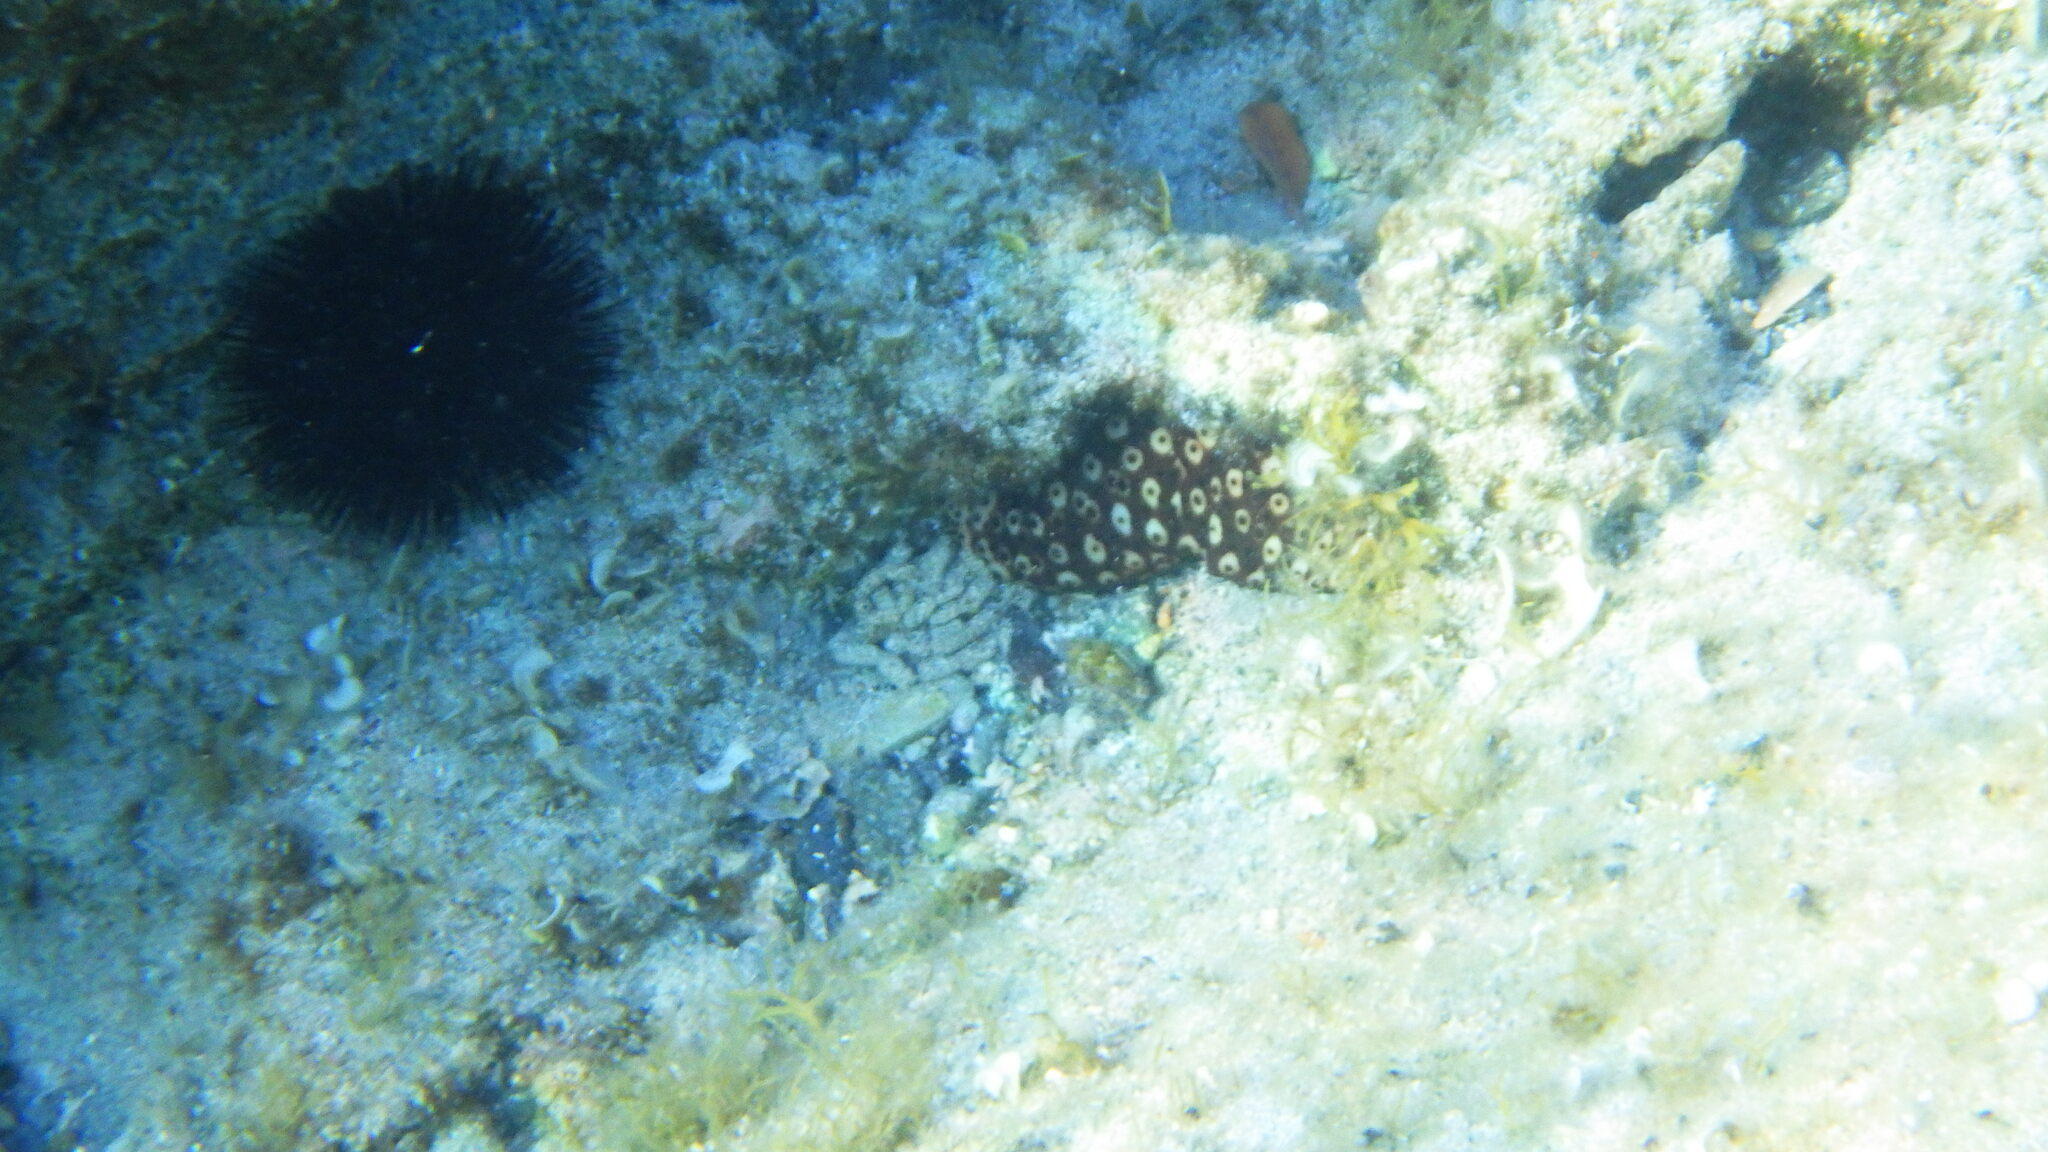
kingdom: Animalia
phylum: Echinodermata
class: Holothuroidea
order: Holothuriida
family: Holothuriidae
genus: Holothuria
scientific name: Holothuria sanctori
